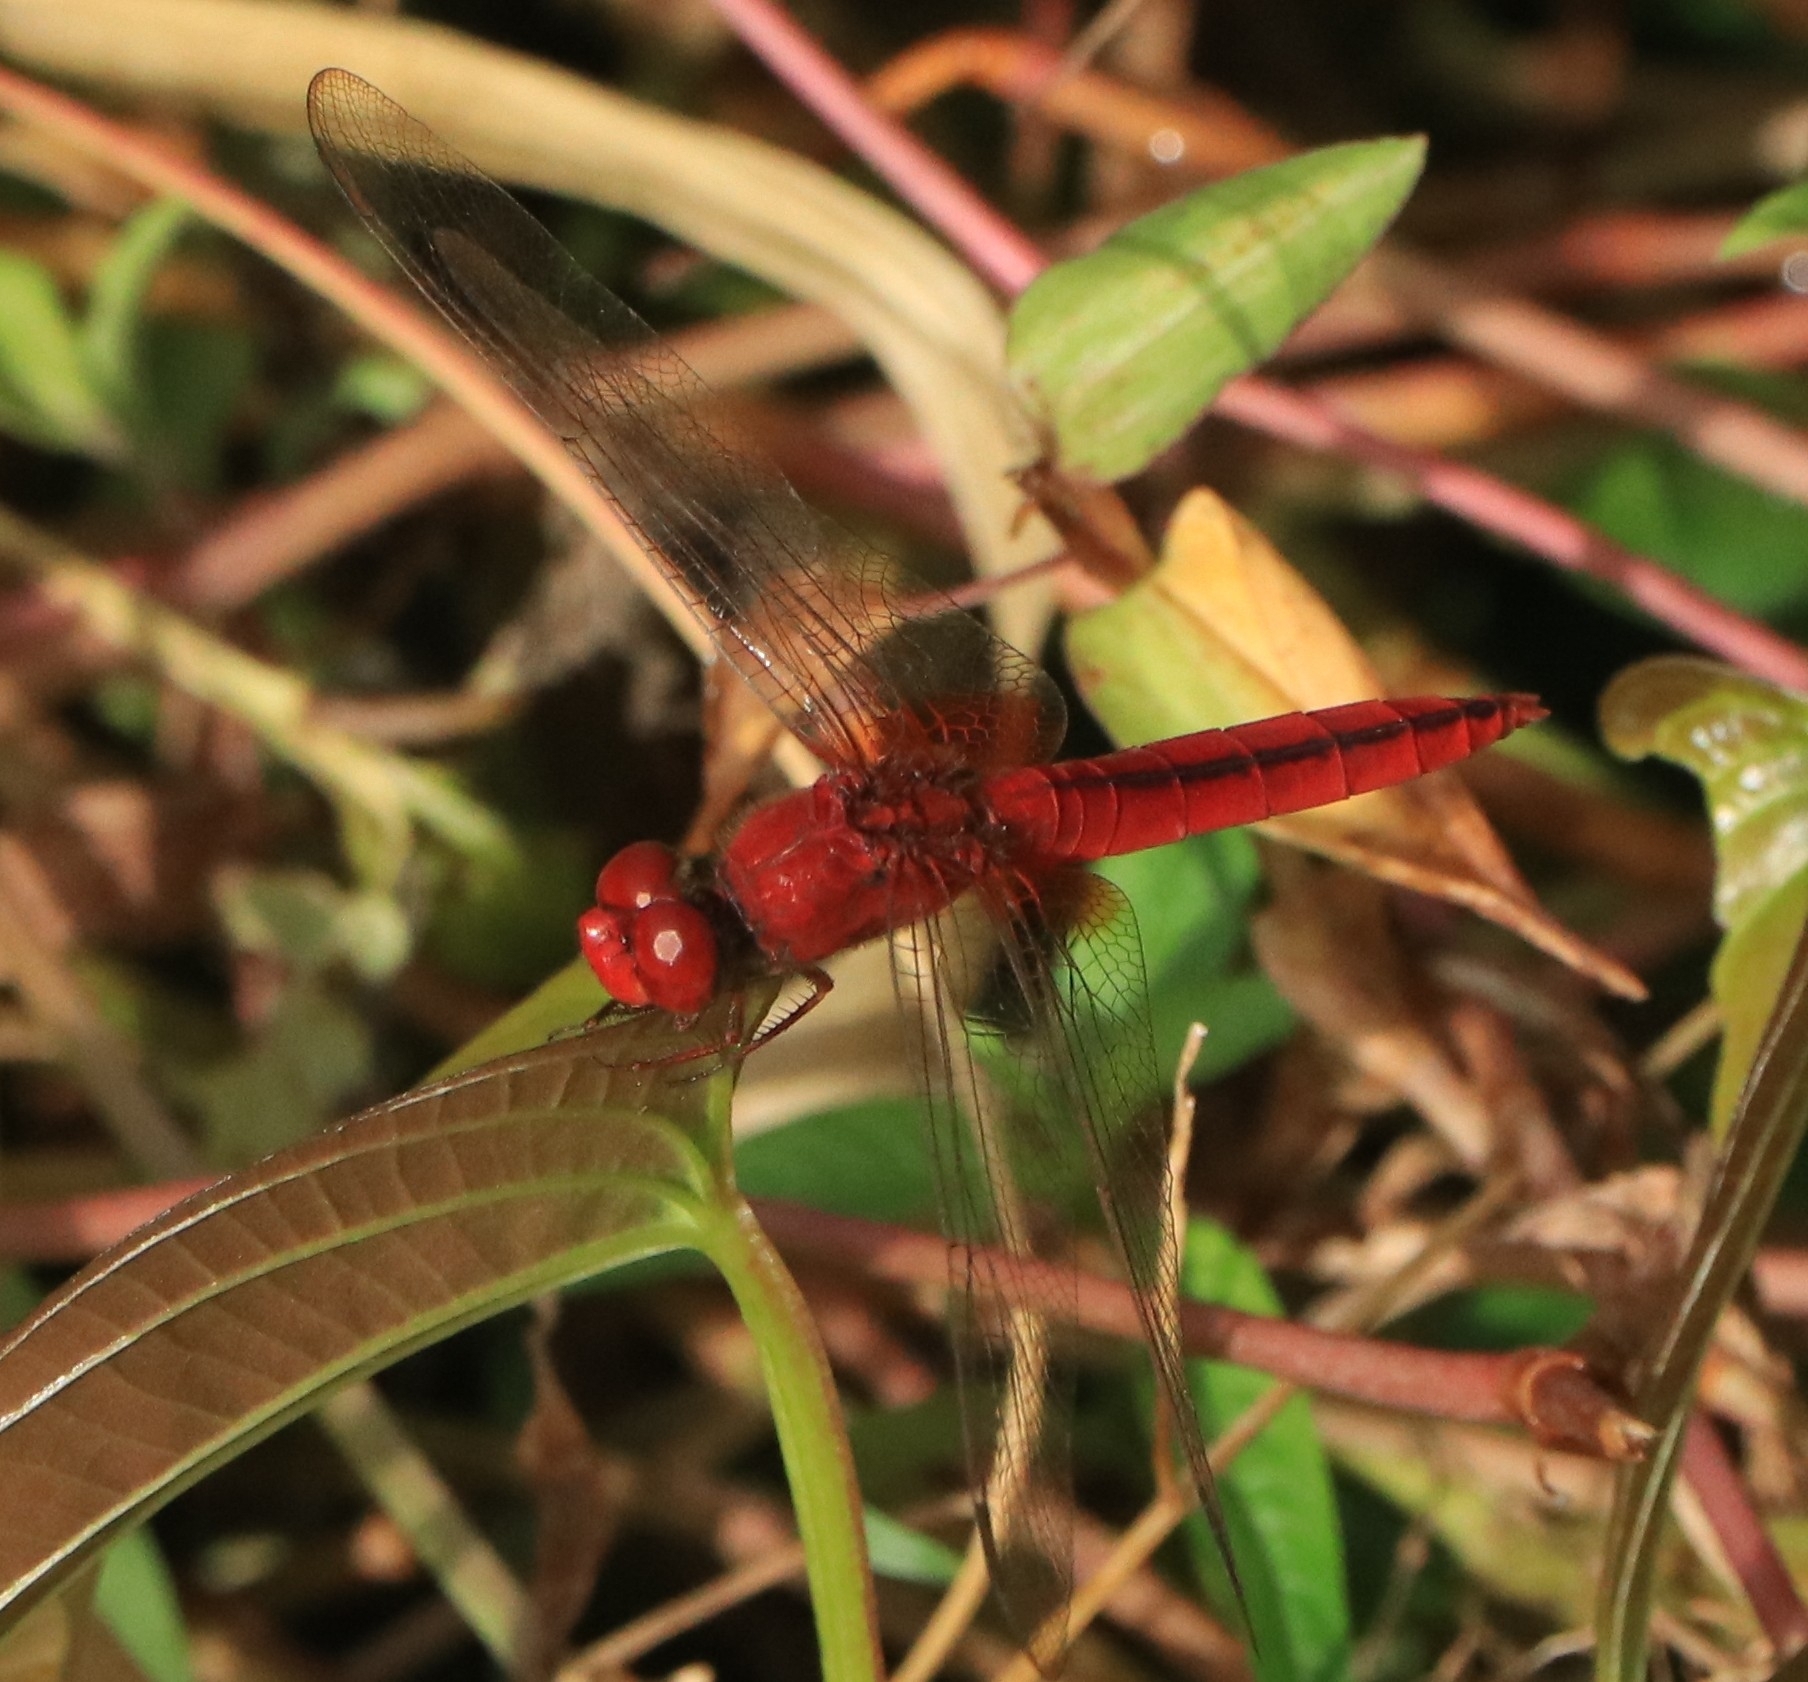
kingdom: Animalia
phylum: Arthropoda
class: Insecta
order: Odonata
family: Libellulidae
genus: Crocothemis
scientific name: Crocothemis servilia
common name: Scarlet skimmer
